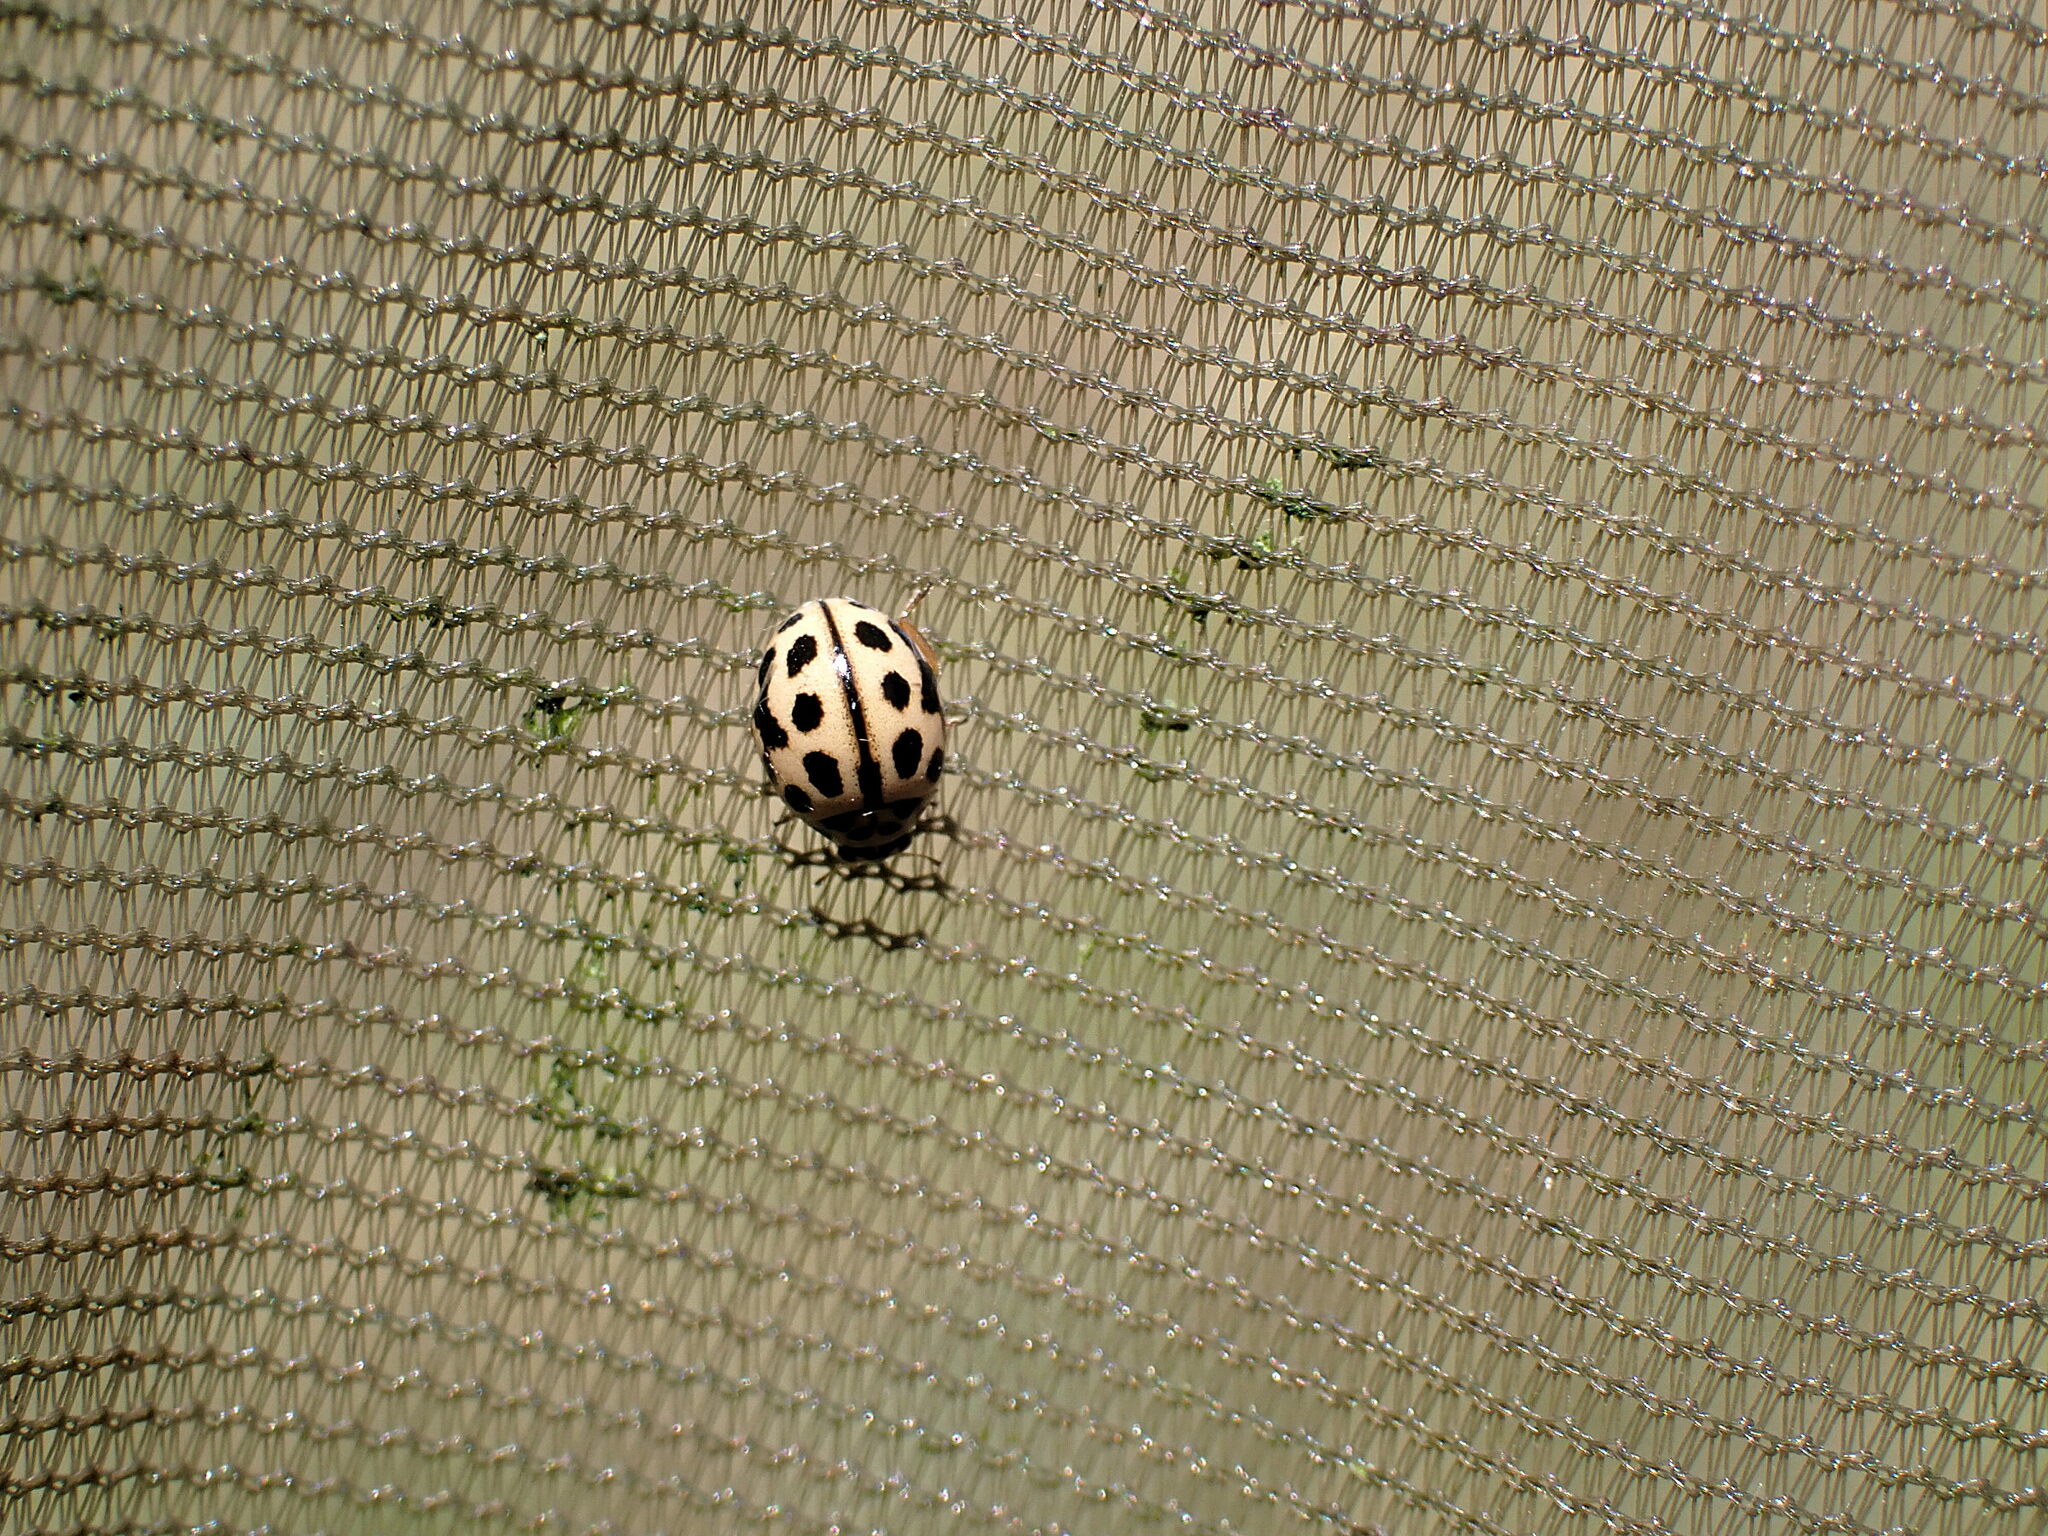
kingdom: Animalia
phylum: Arthropoda
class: Insecta
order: Coleoptera
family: Coccinellidae
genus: Tytthaspis
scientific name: Tytthaspis sedecimpunctata
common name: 16-spot ladybird
